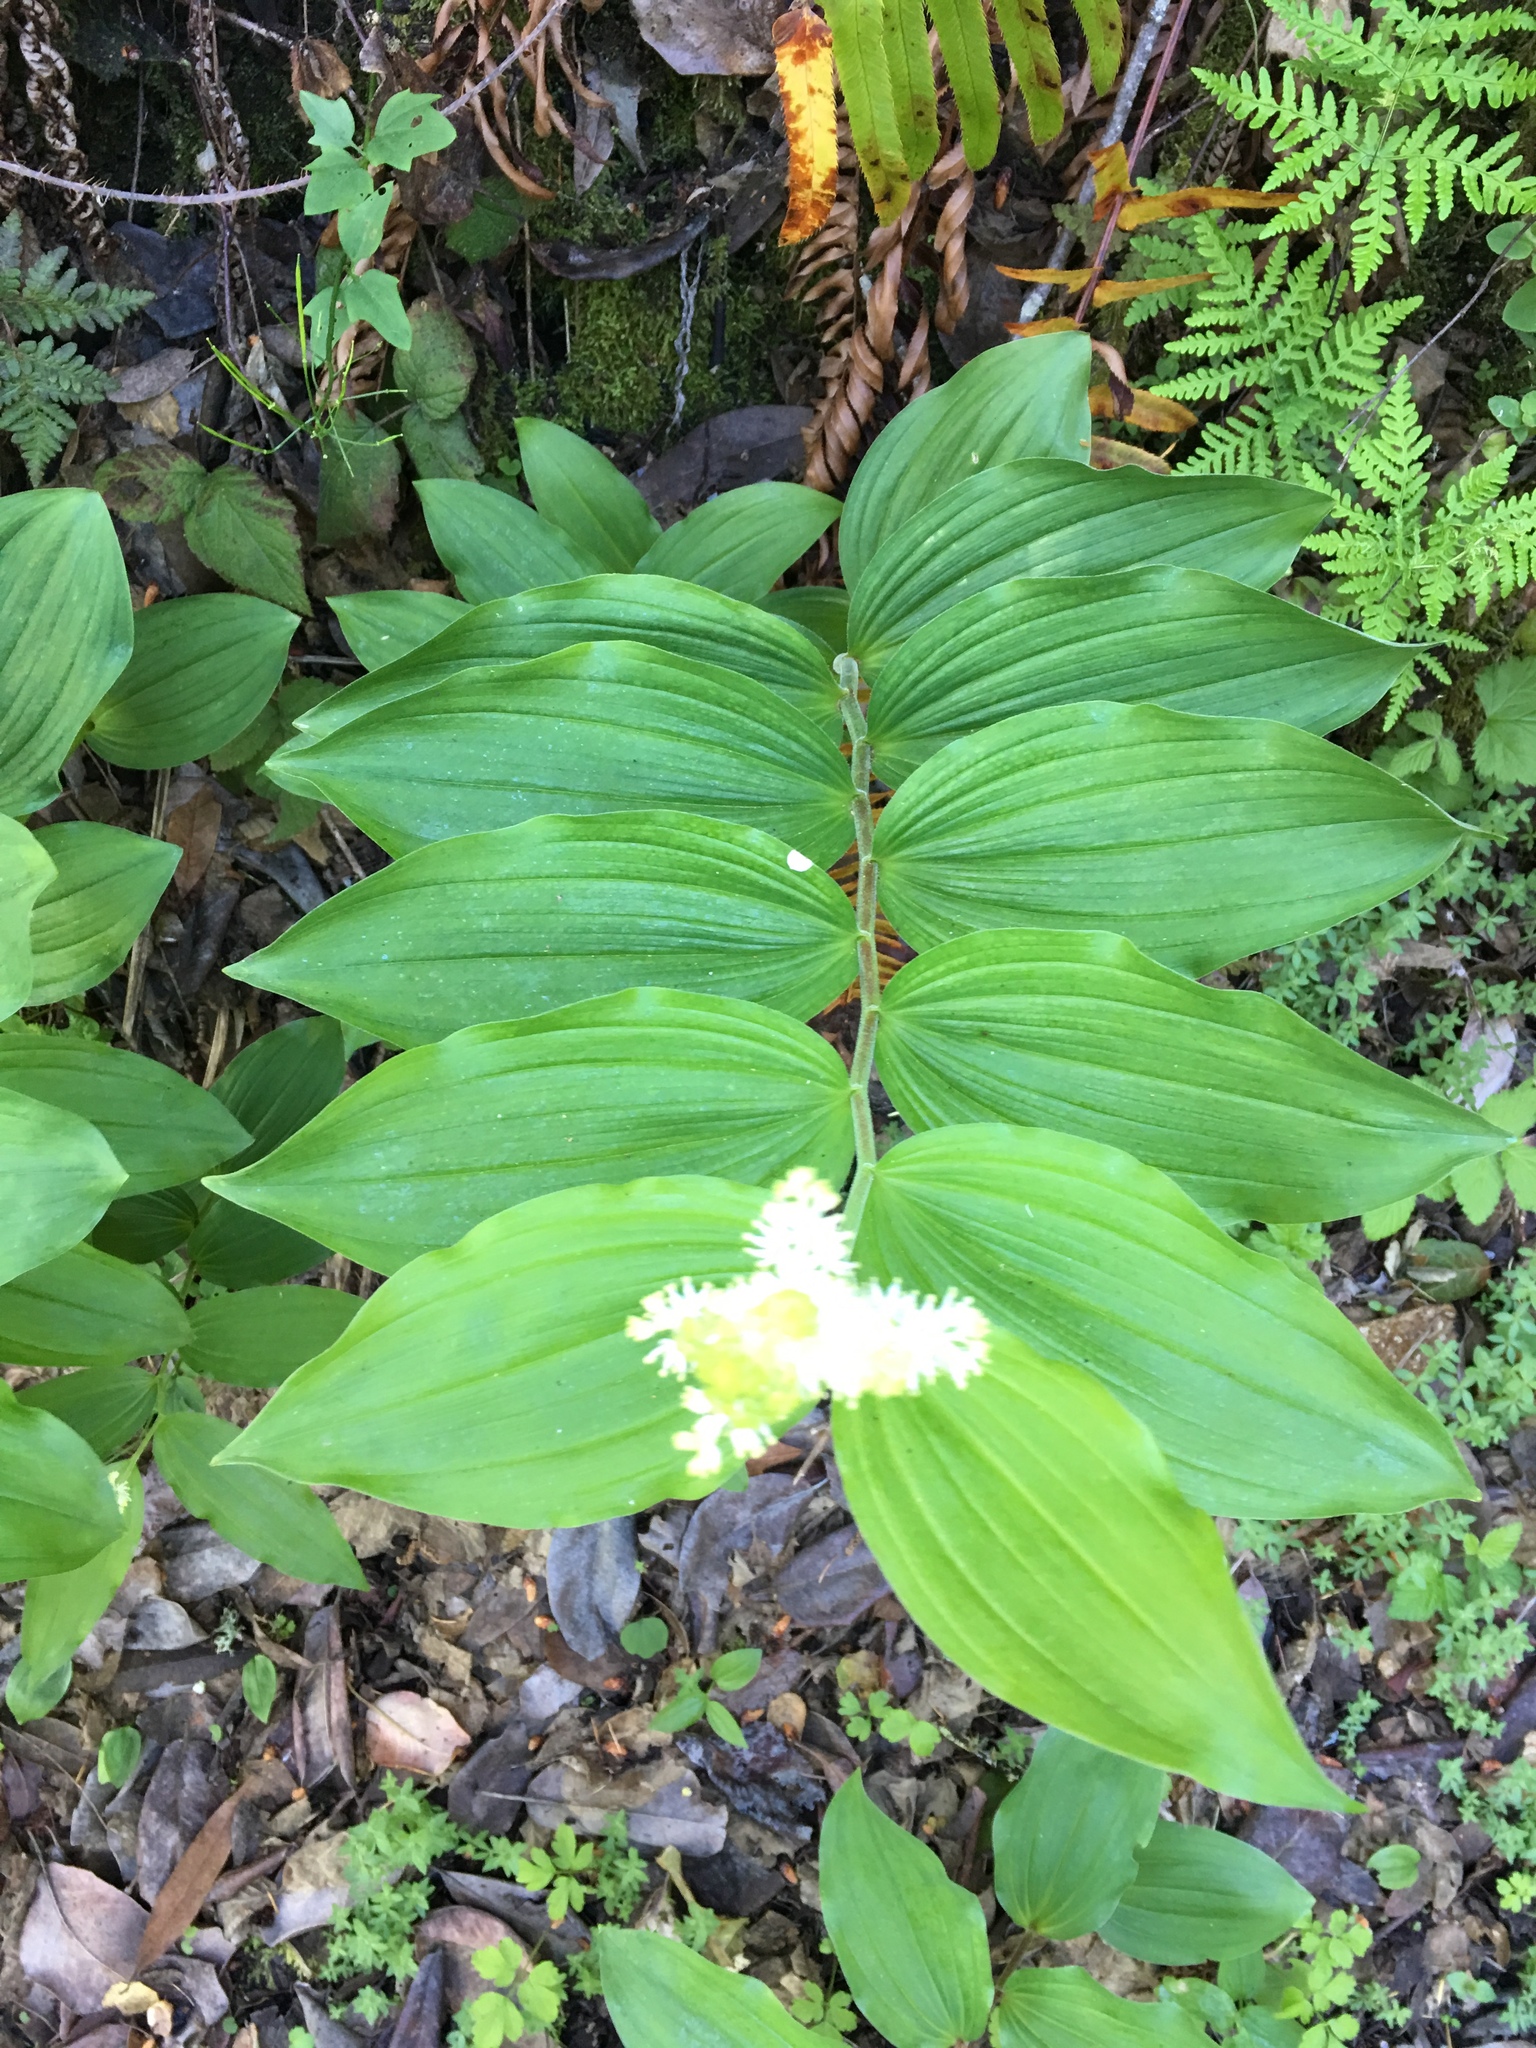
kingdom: Plantae
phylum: Tracheophyta
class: Liliopsida
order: Asparagales
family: Asparagaceae
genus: Maianthemum
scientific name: Maianthemum racemosum
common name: False spikenard
